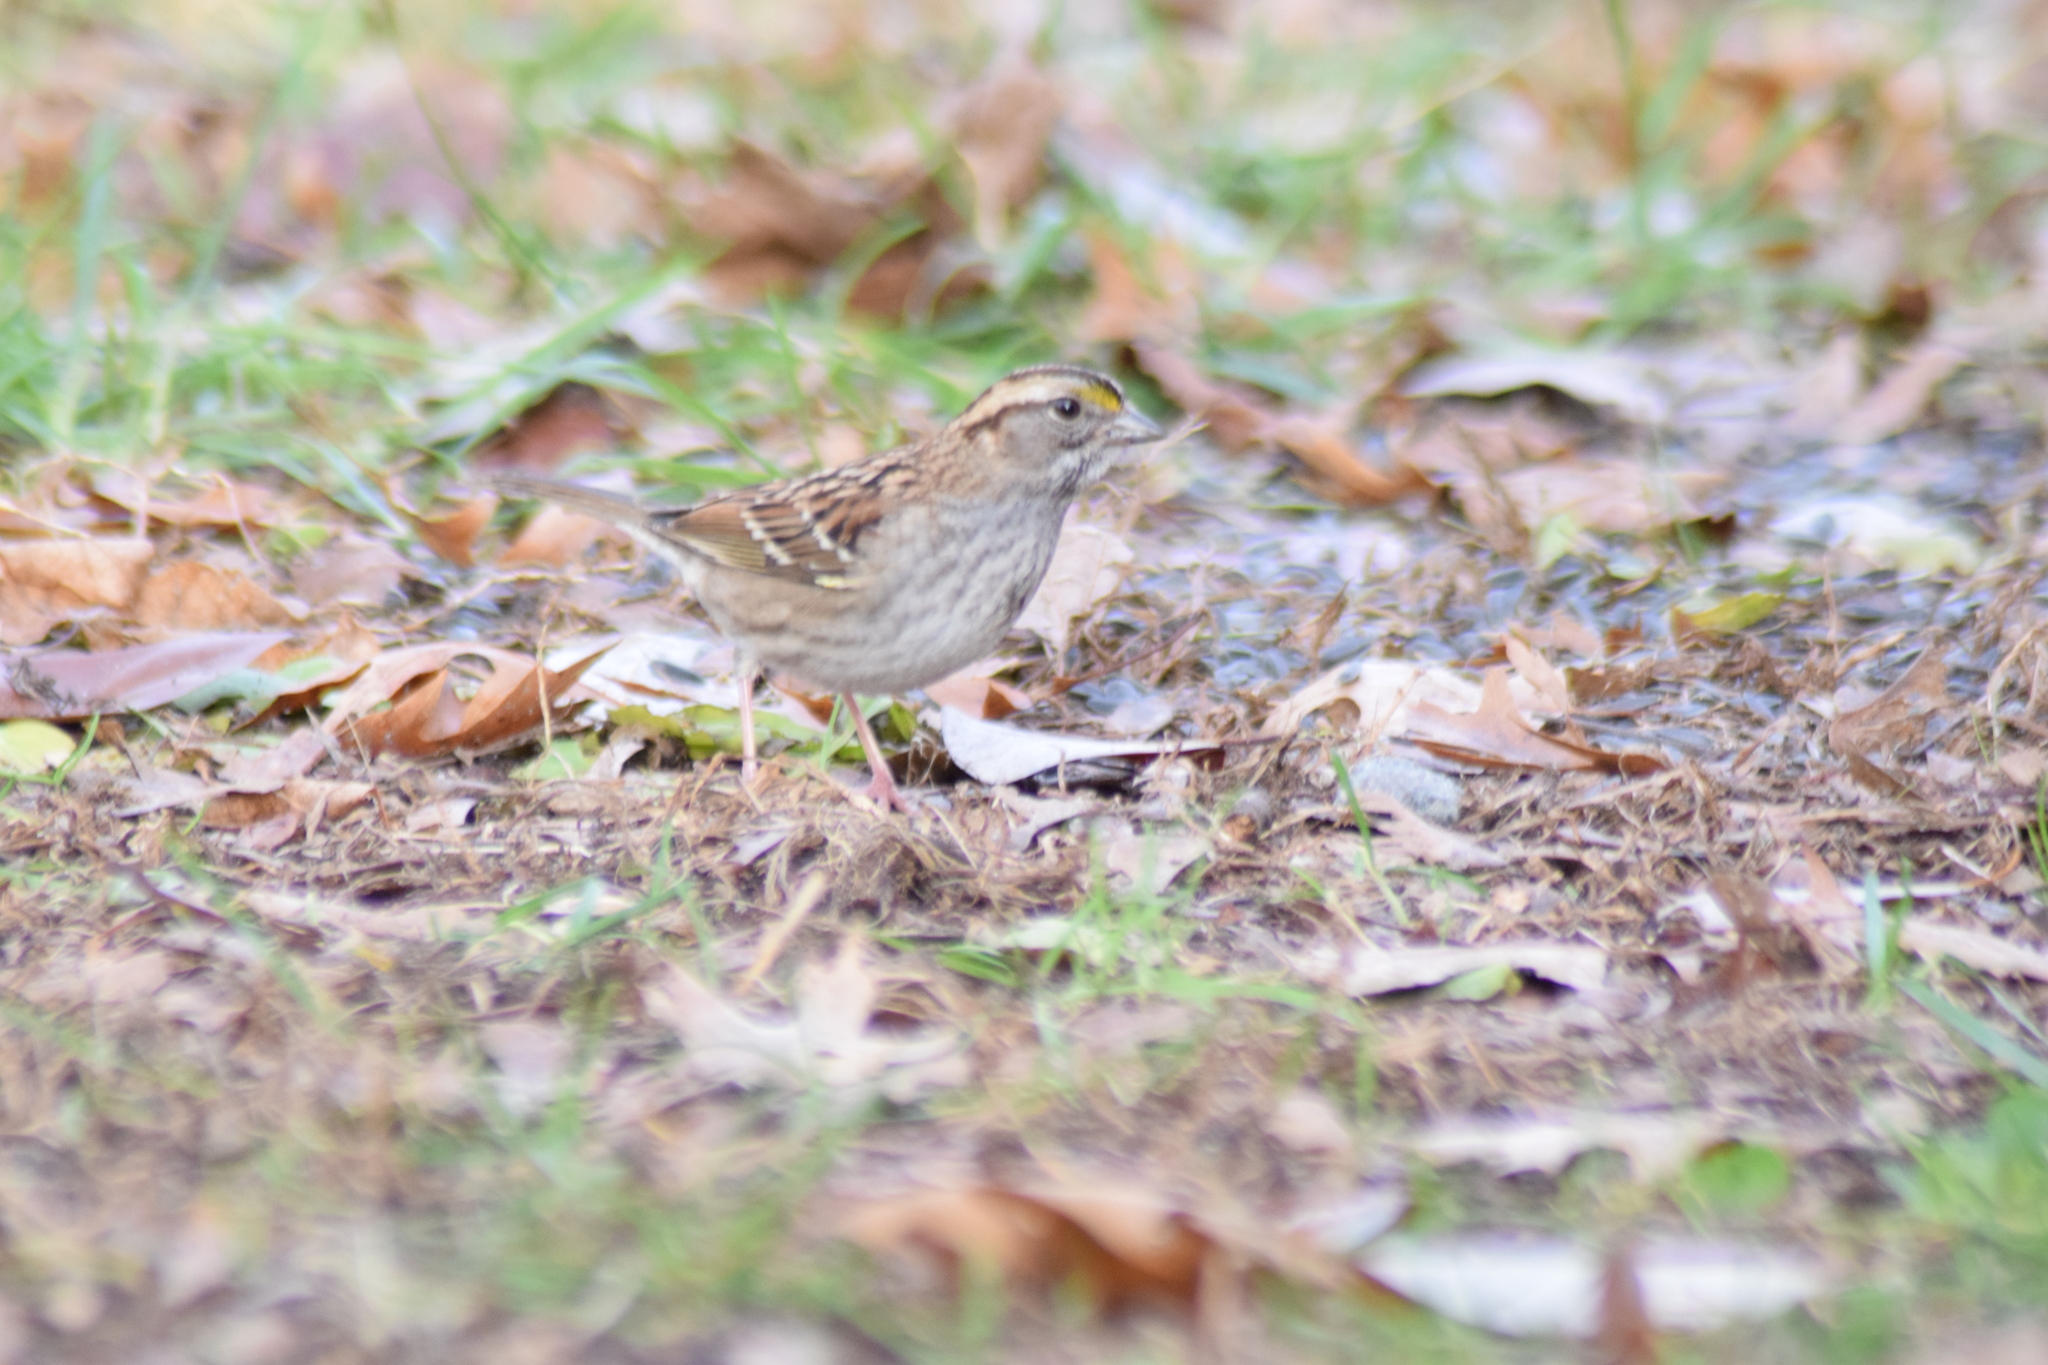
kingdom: Animalia
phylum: Chordata
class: Aves
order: Passeriformes
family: Passerellidae
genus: Zonotrichia
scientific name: Zonotrichia albicollis
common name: White-throated sparrow
